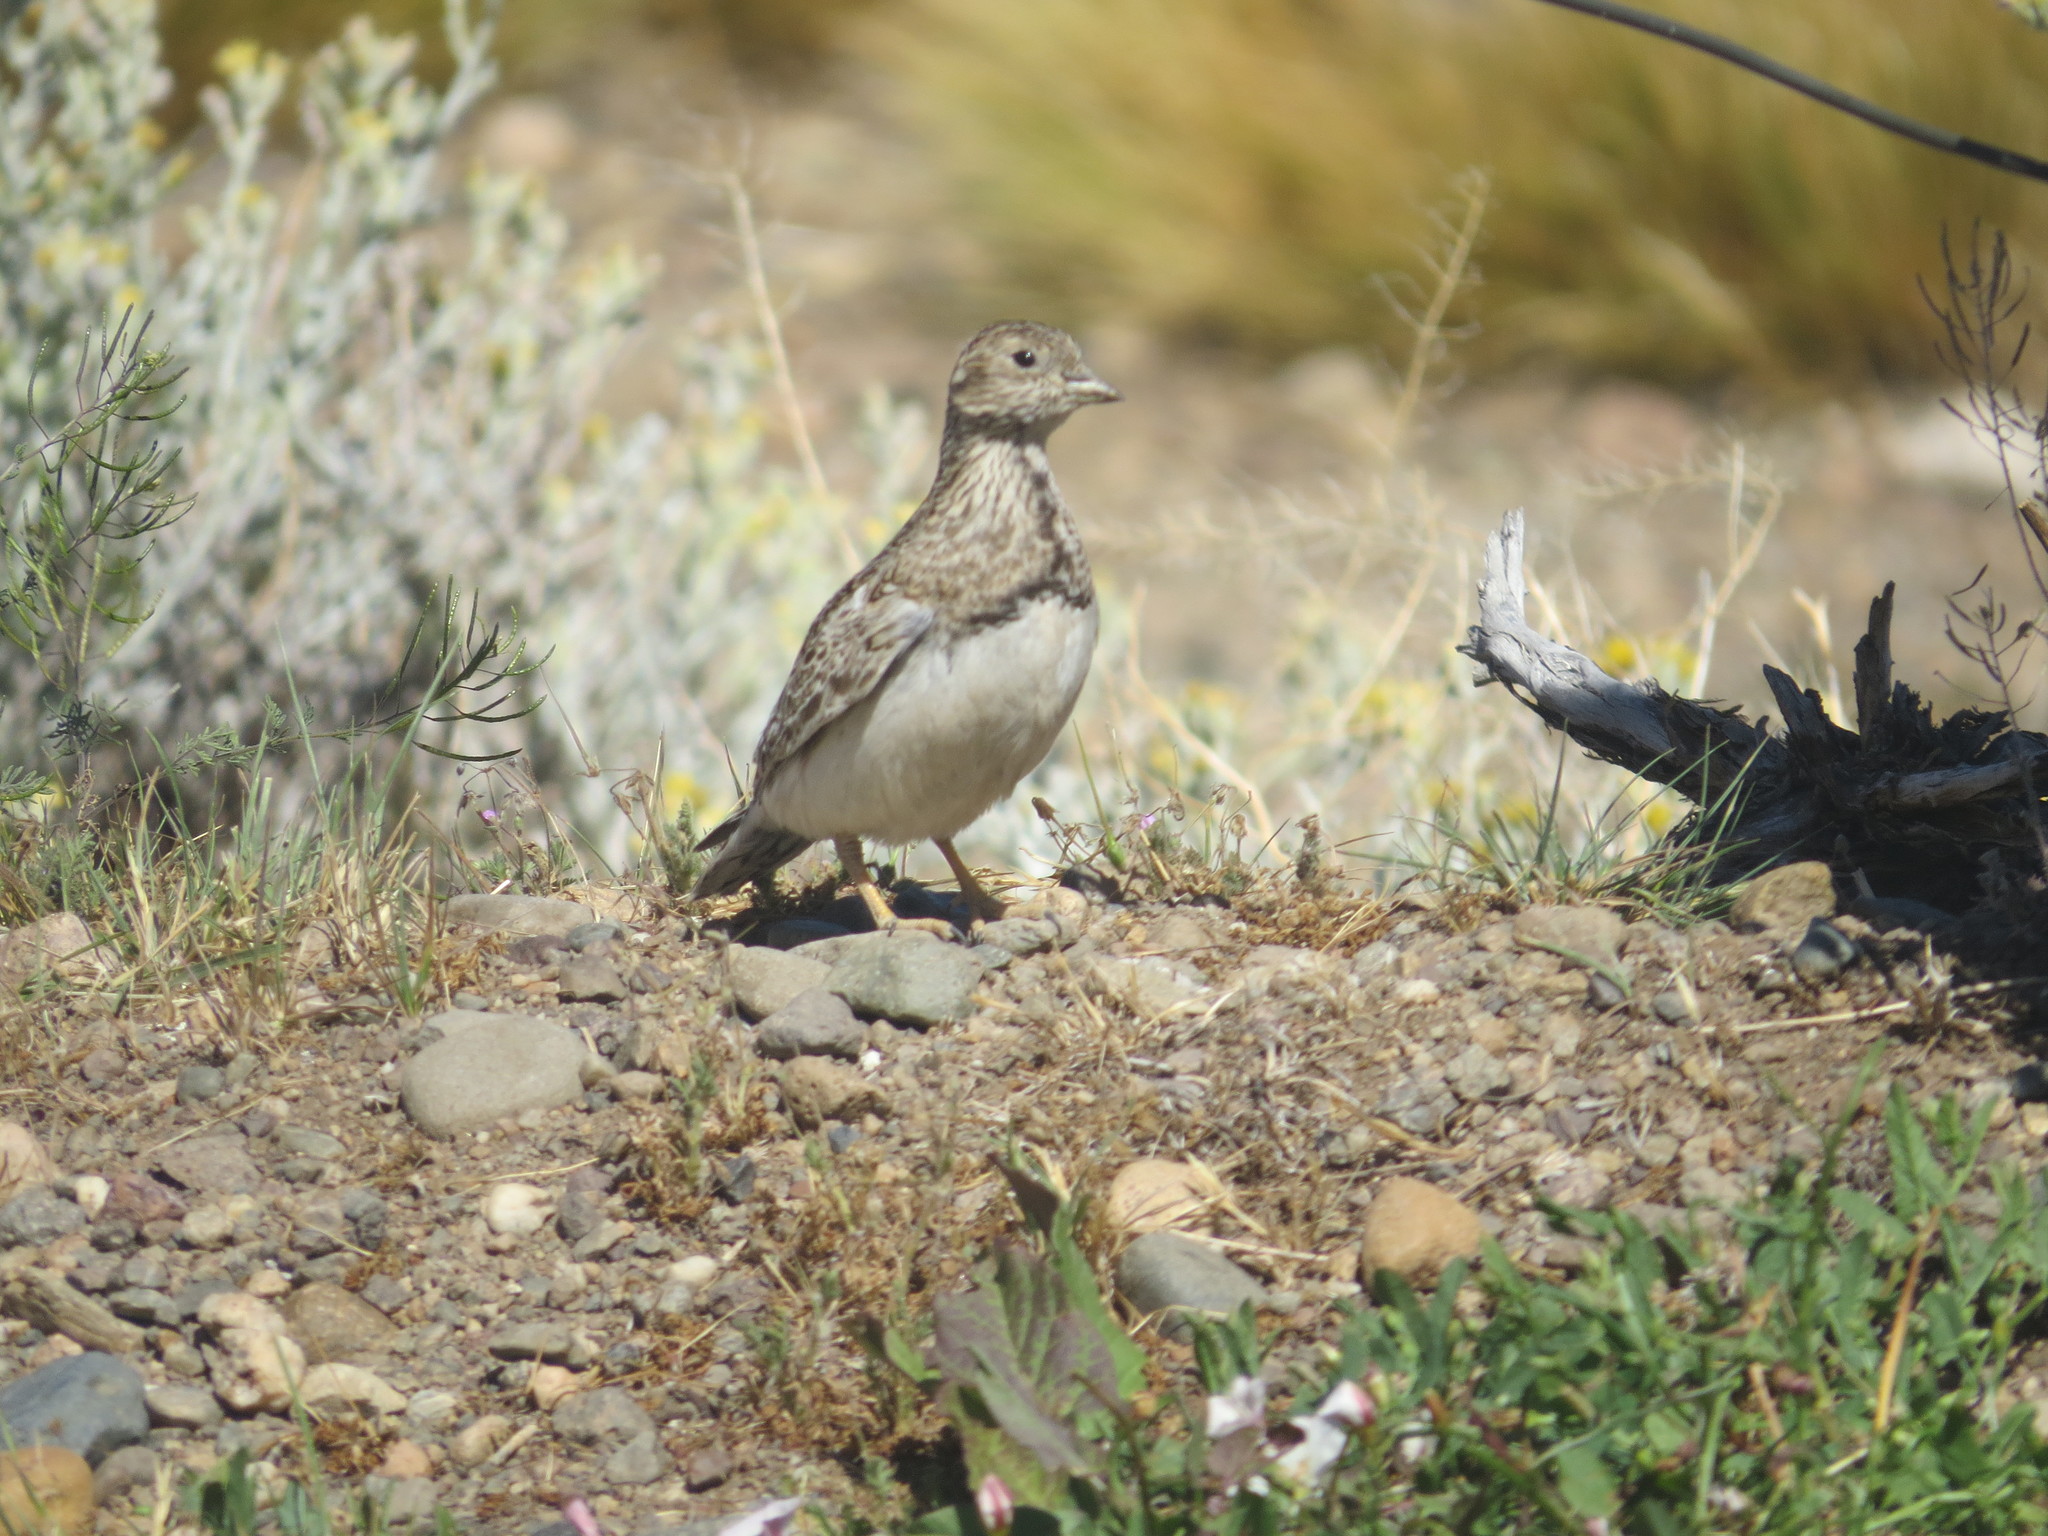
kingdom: Animalia
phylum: Chordata
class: Aves
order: Charadriiformes
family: Thinocoridae
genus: Thinocorus
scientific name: Thinocorus rumicivorus
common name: Least seedsnipe
